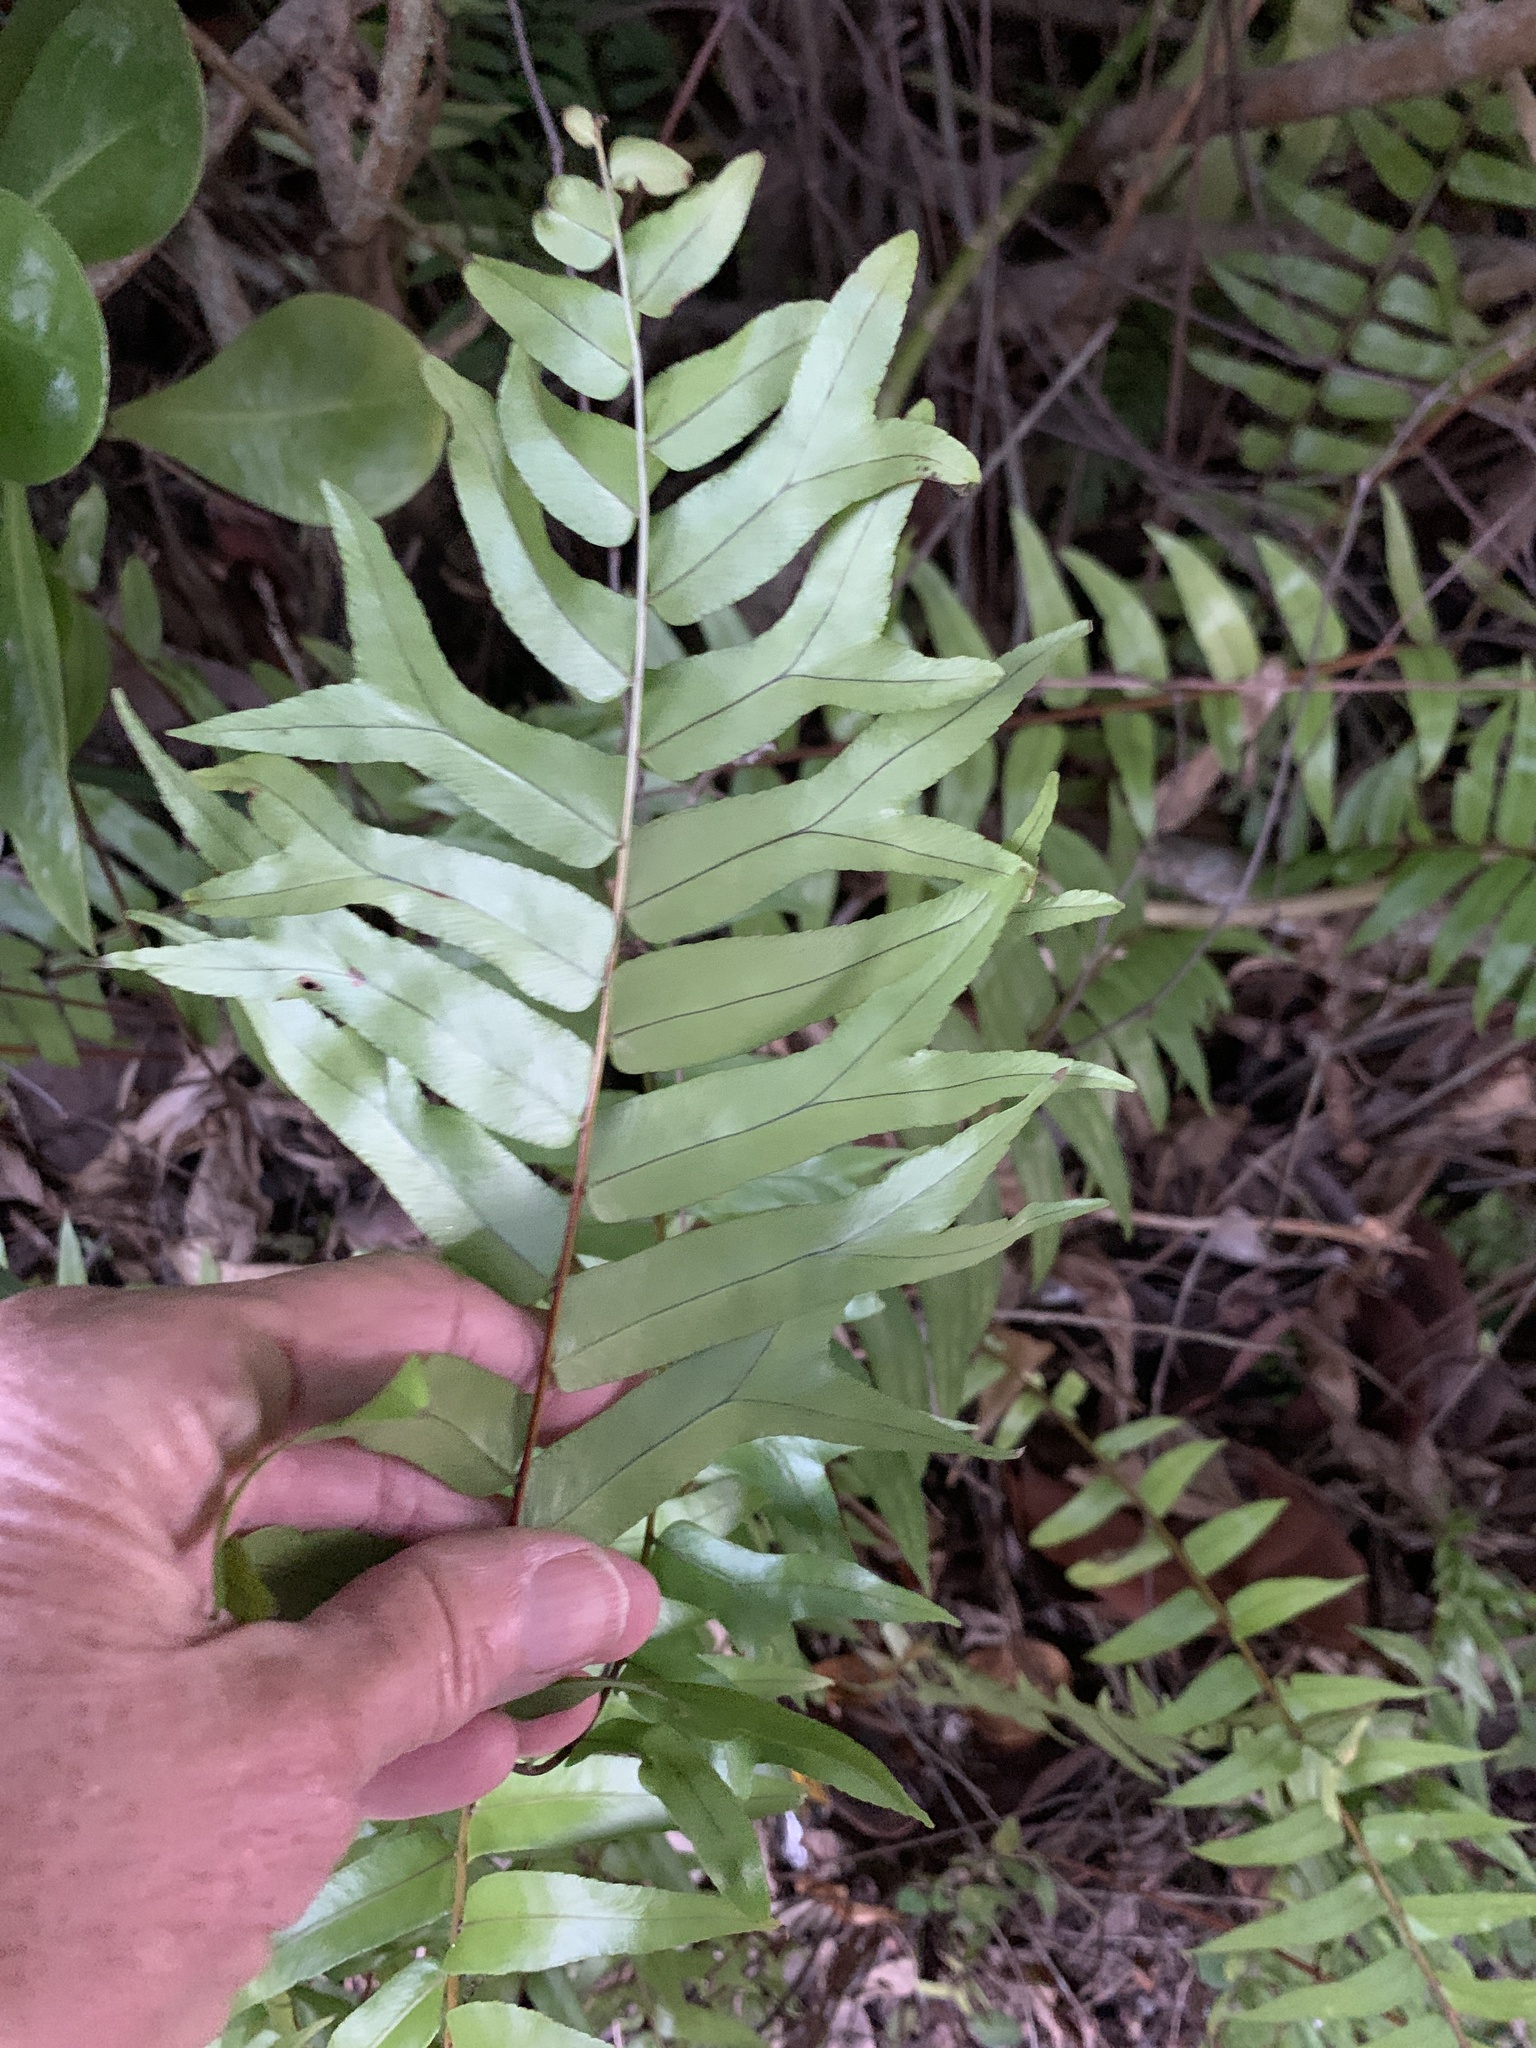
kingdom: Plantae
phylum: Tracheophyta
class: Polypodiopsida
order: Polypodiales
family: Nephrolepidaceae
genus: Nephrolepis
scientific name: Nephrolepis falcata
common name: Fishtail swordfern
